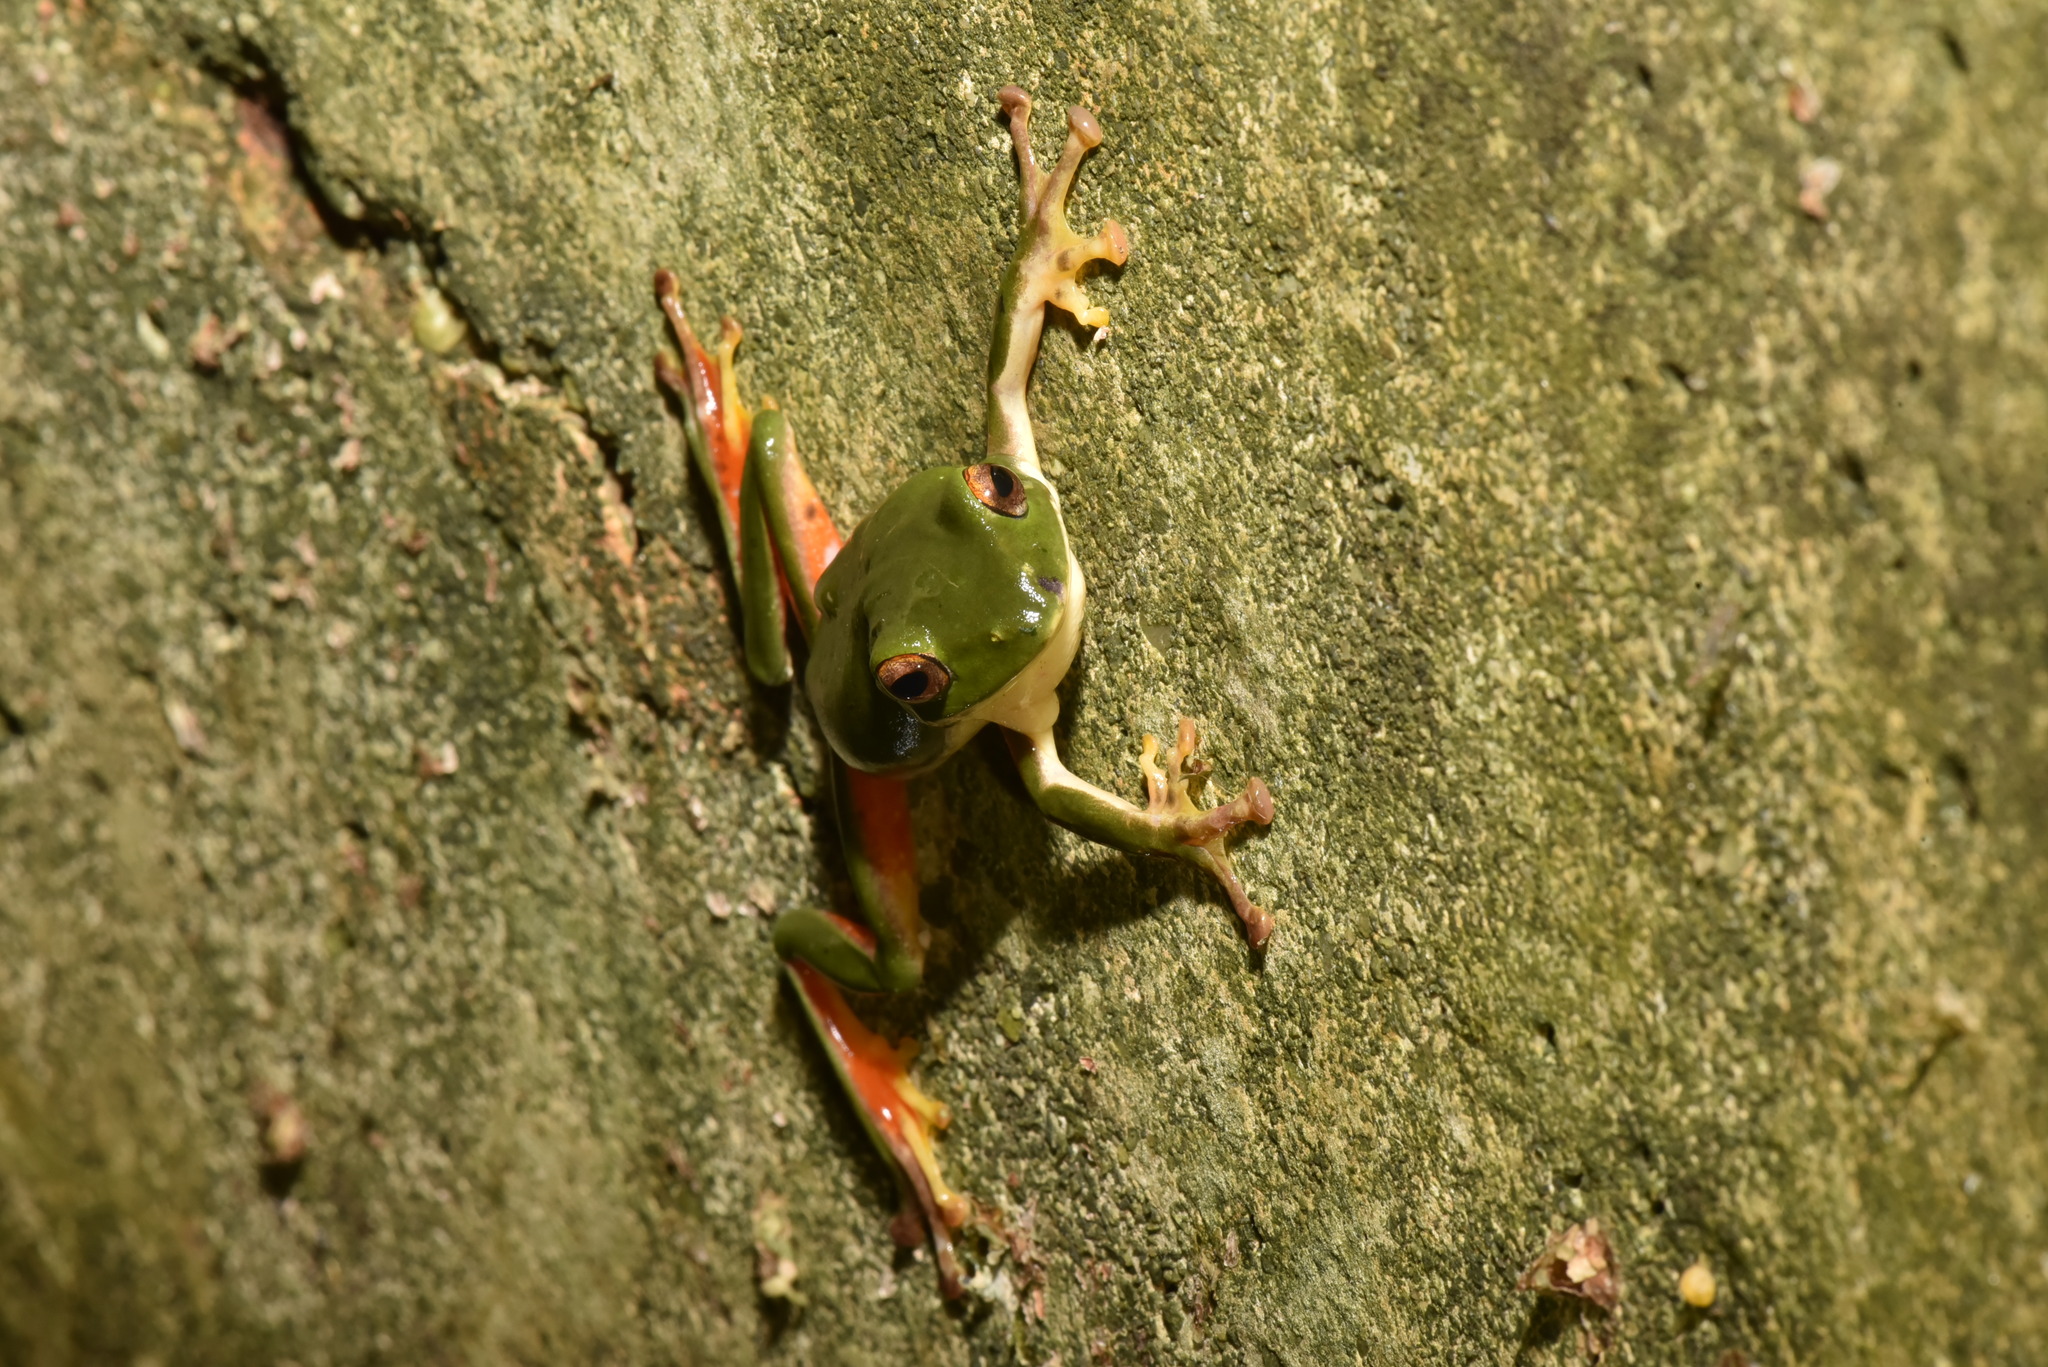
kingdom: Animalia
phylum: Chordata
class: Amphibia
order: Anura
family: Rhacophoridae
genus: Zhangixalus
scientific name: Zhangixalus moltrechti
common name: Moltrecht's treefrog
